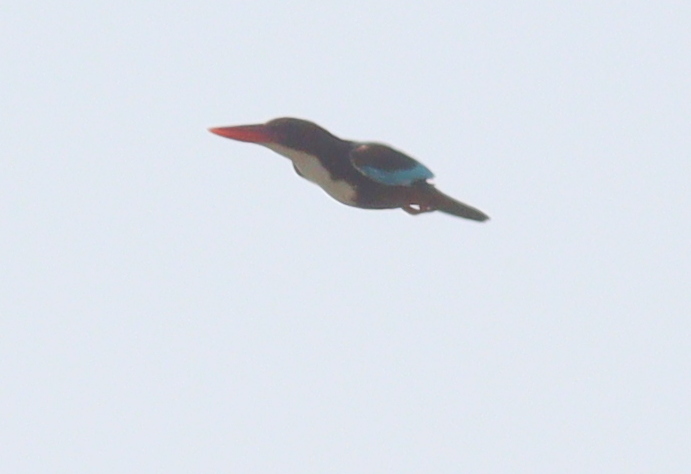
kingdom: Animalia
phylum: Chordata
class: Aves
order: Coraciiformes
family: Alcedinidae
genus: Halcyon
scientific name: Halcyon smyrnensis
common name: White-throated kingfisher
